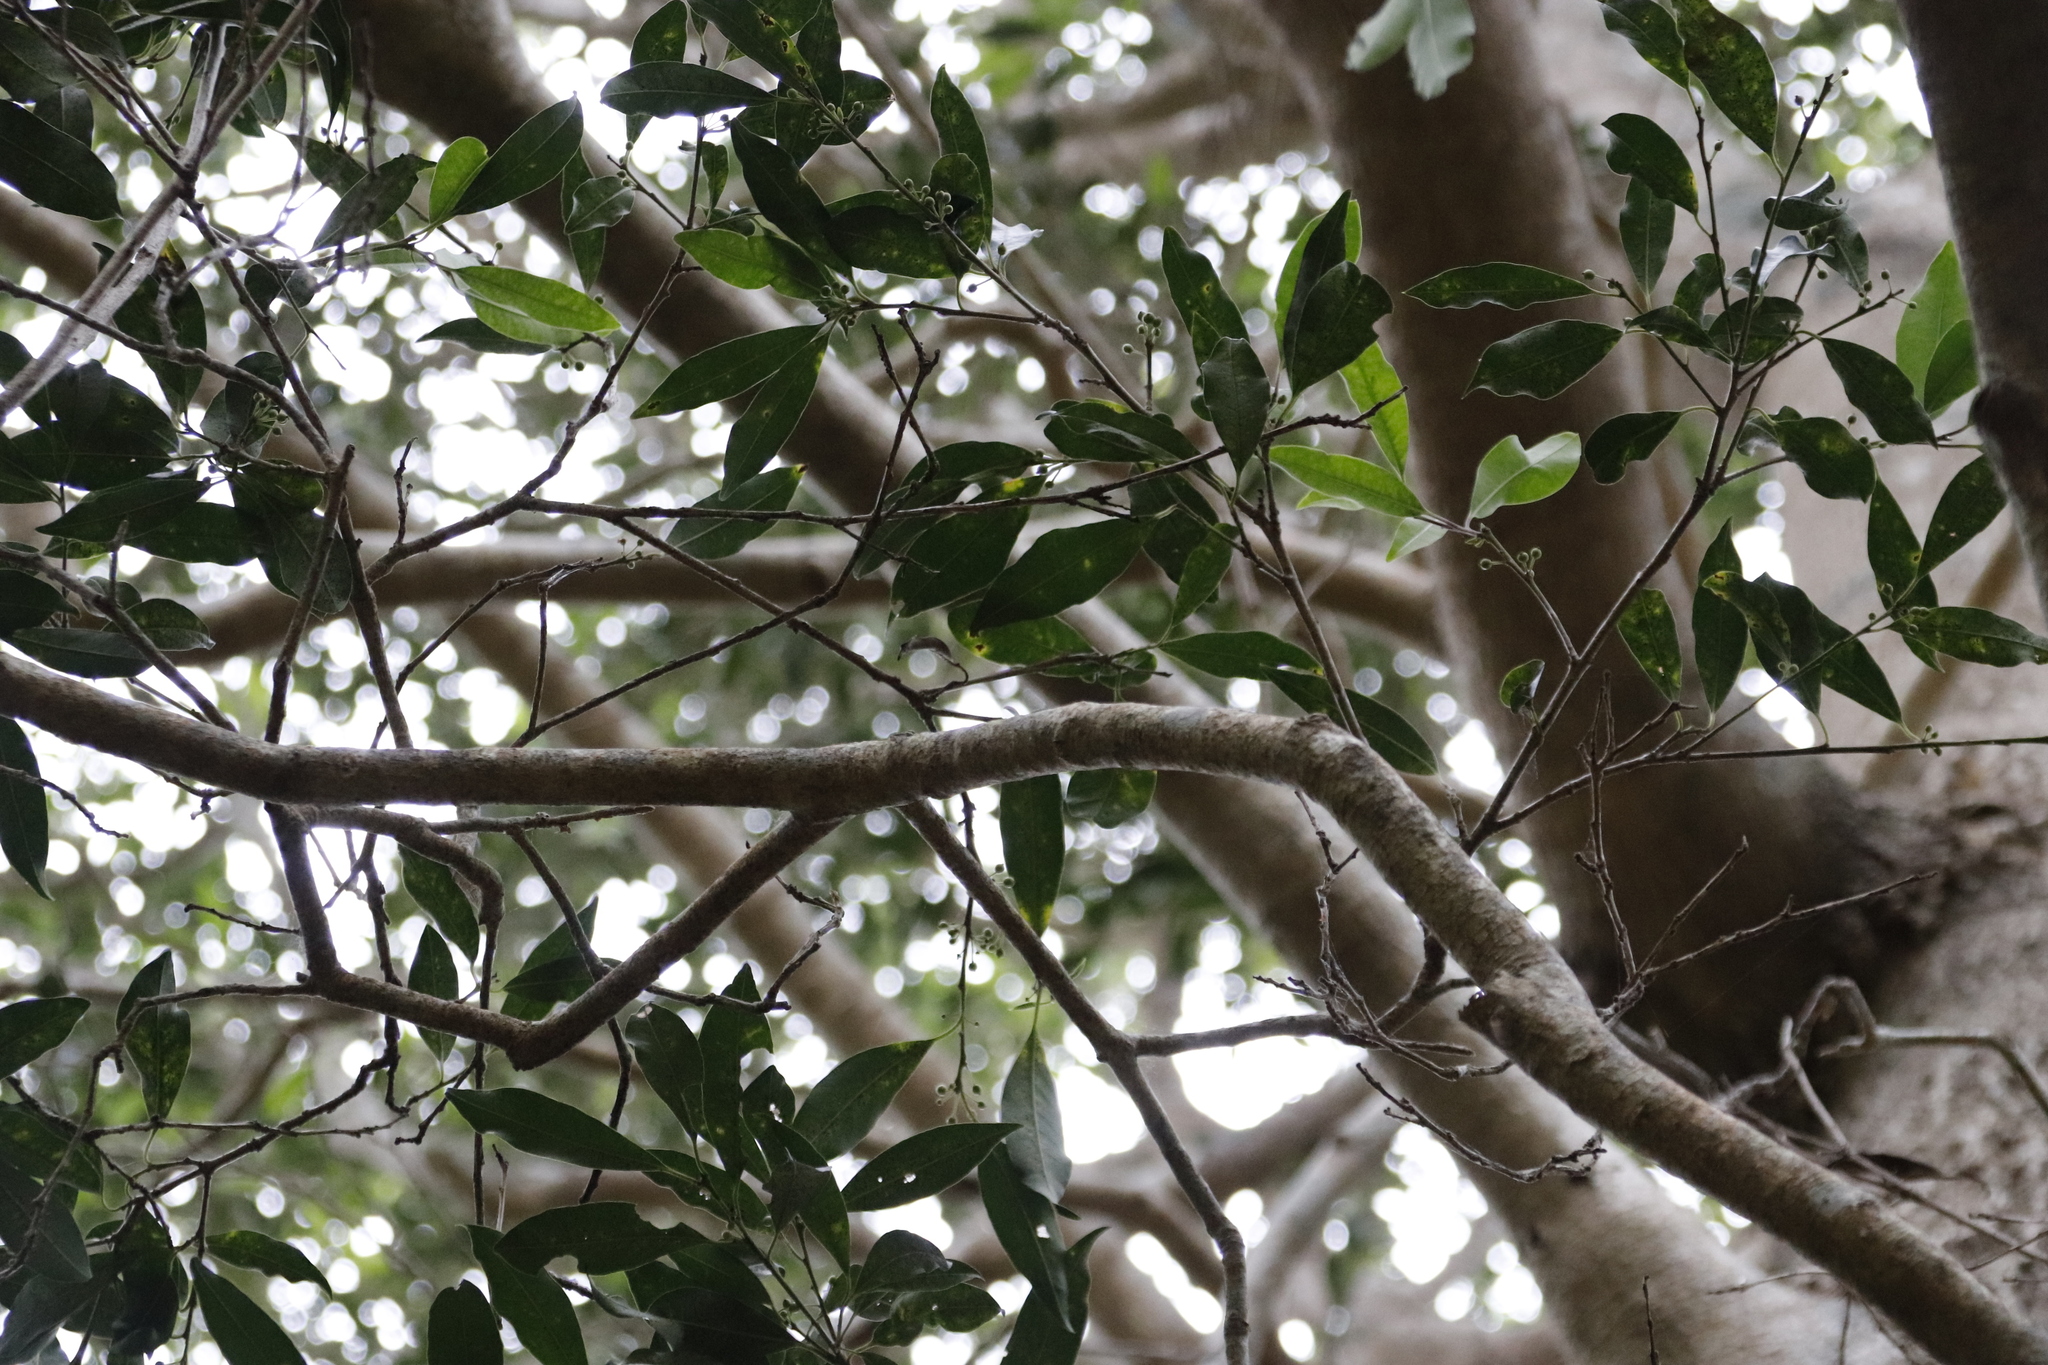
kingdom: Plantae
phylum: Tracheophyta
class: Magnoliopsida
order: Aquifoliales
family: Aquifoliaceae
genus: Ilex
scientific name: Ilex mitis
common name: African holly
